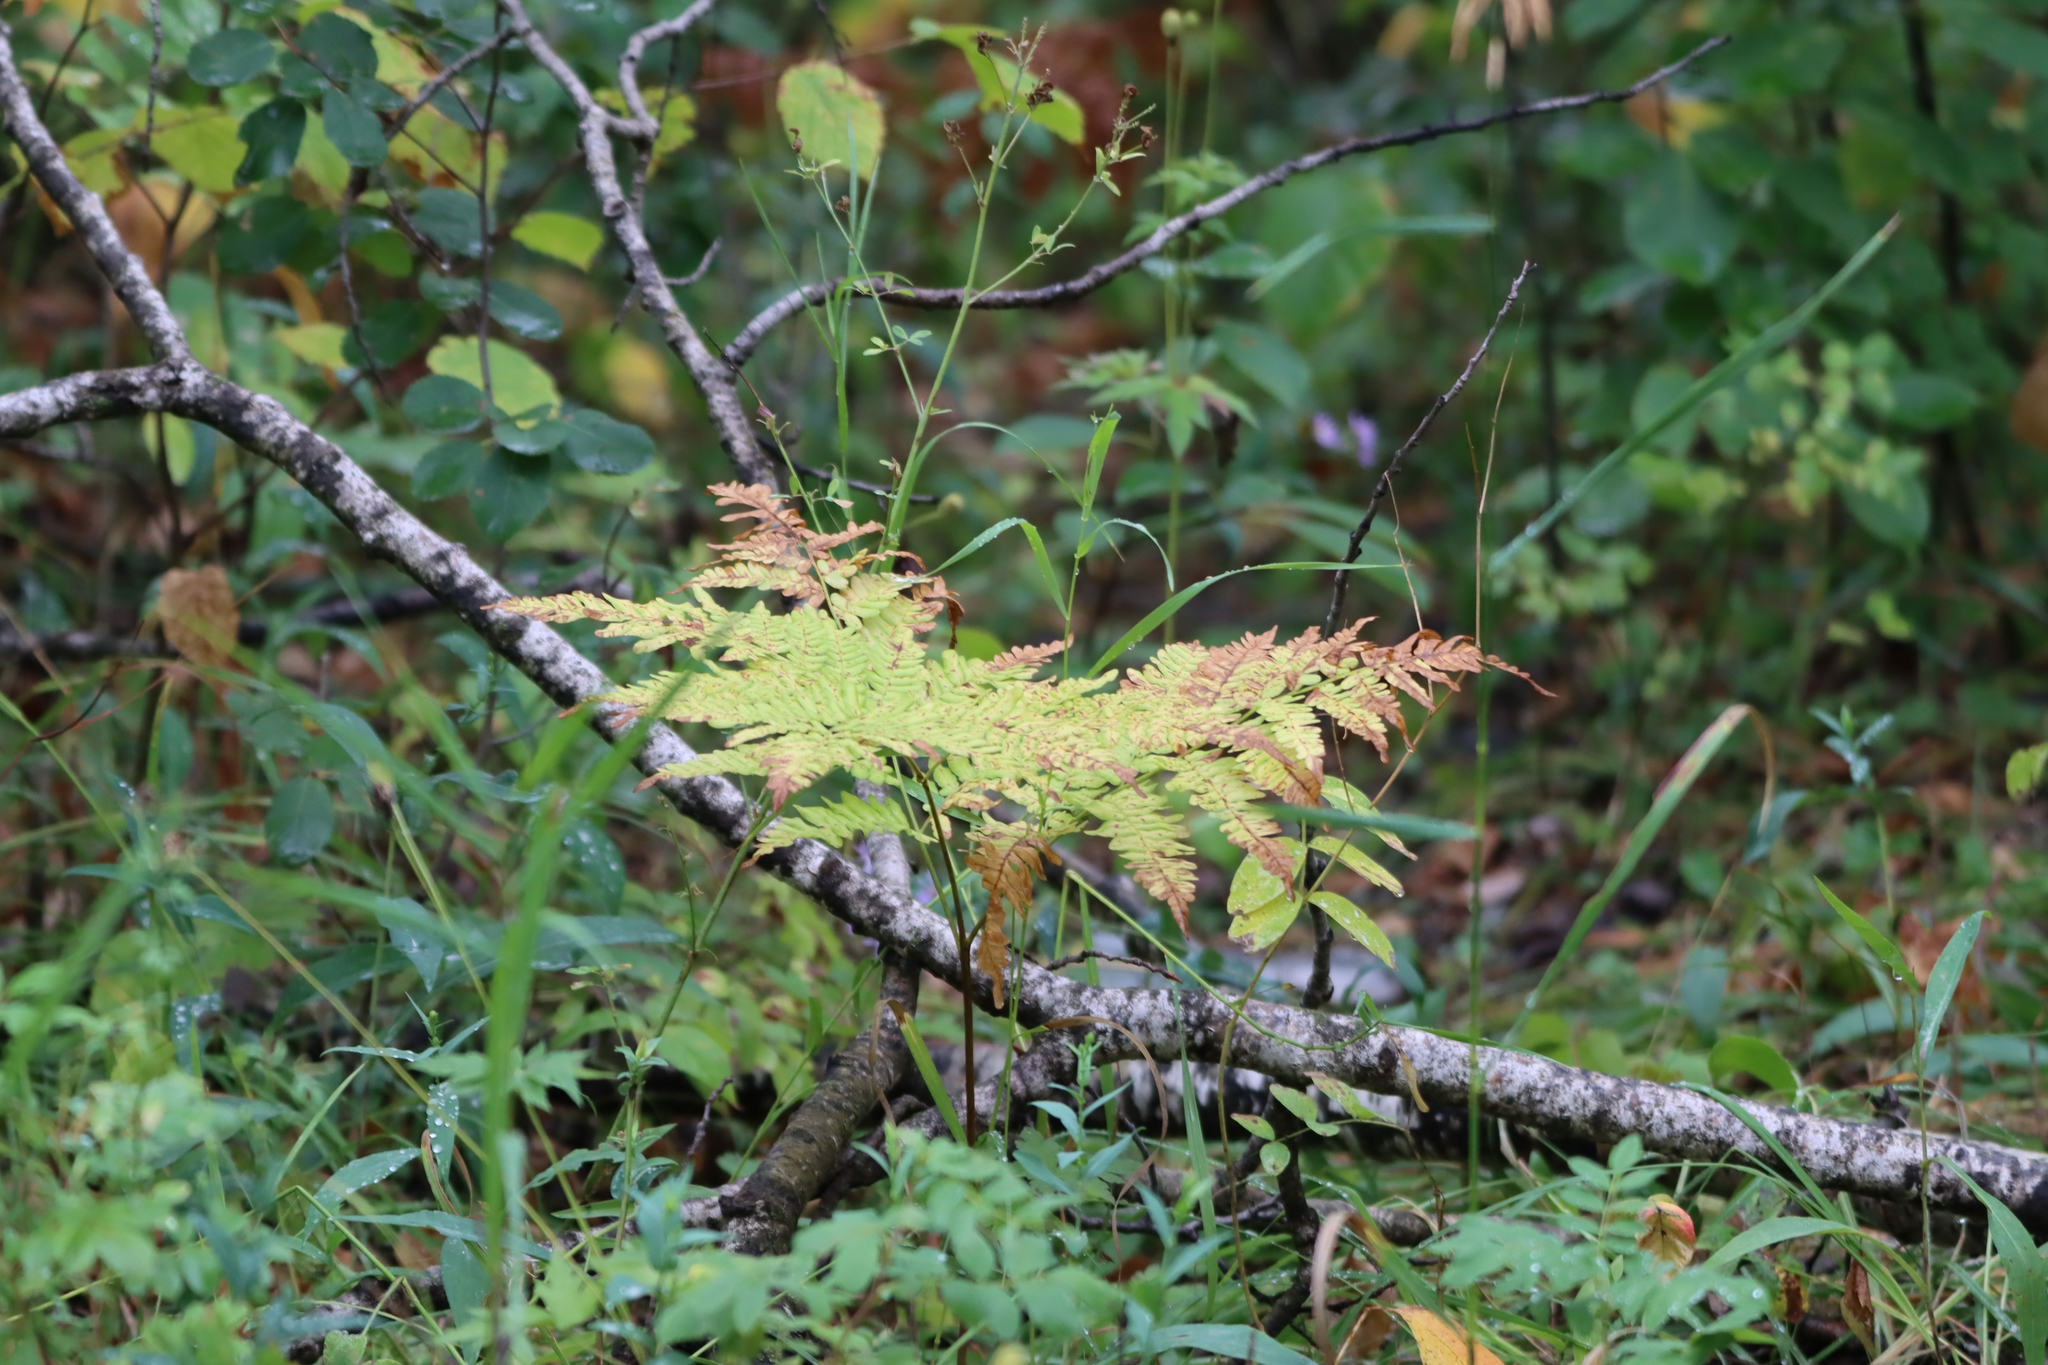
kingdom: Plantae
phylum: Tracheophyta
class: Polypodiopsida
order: Polypodiales
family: Dennstaedtiaceae
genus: Pteridium
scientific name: Pteridium aquilinum
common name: Bracken
